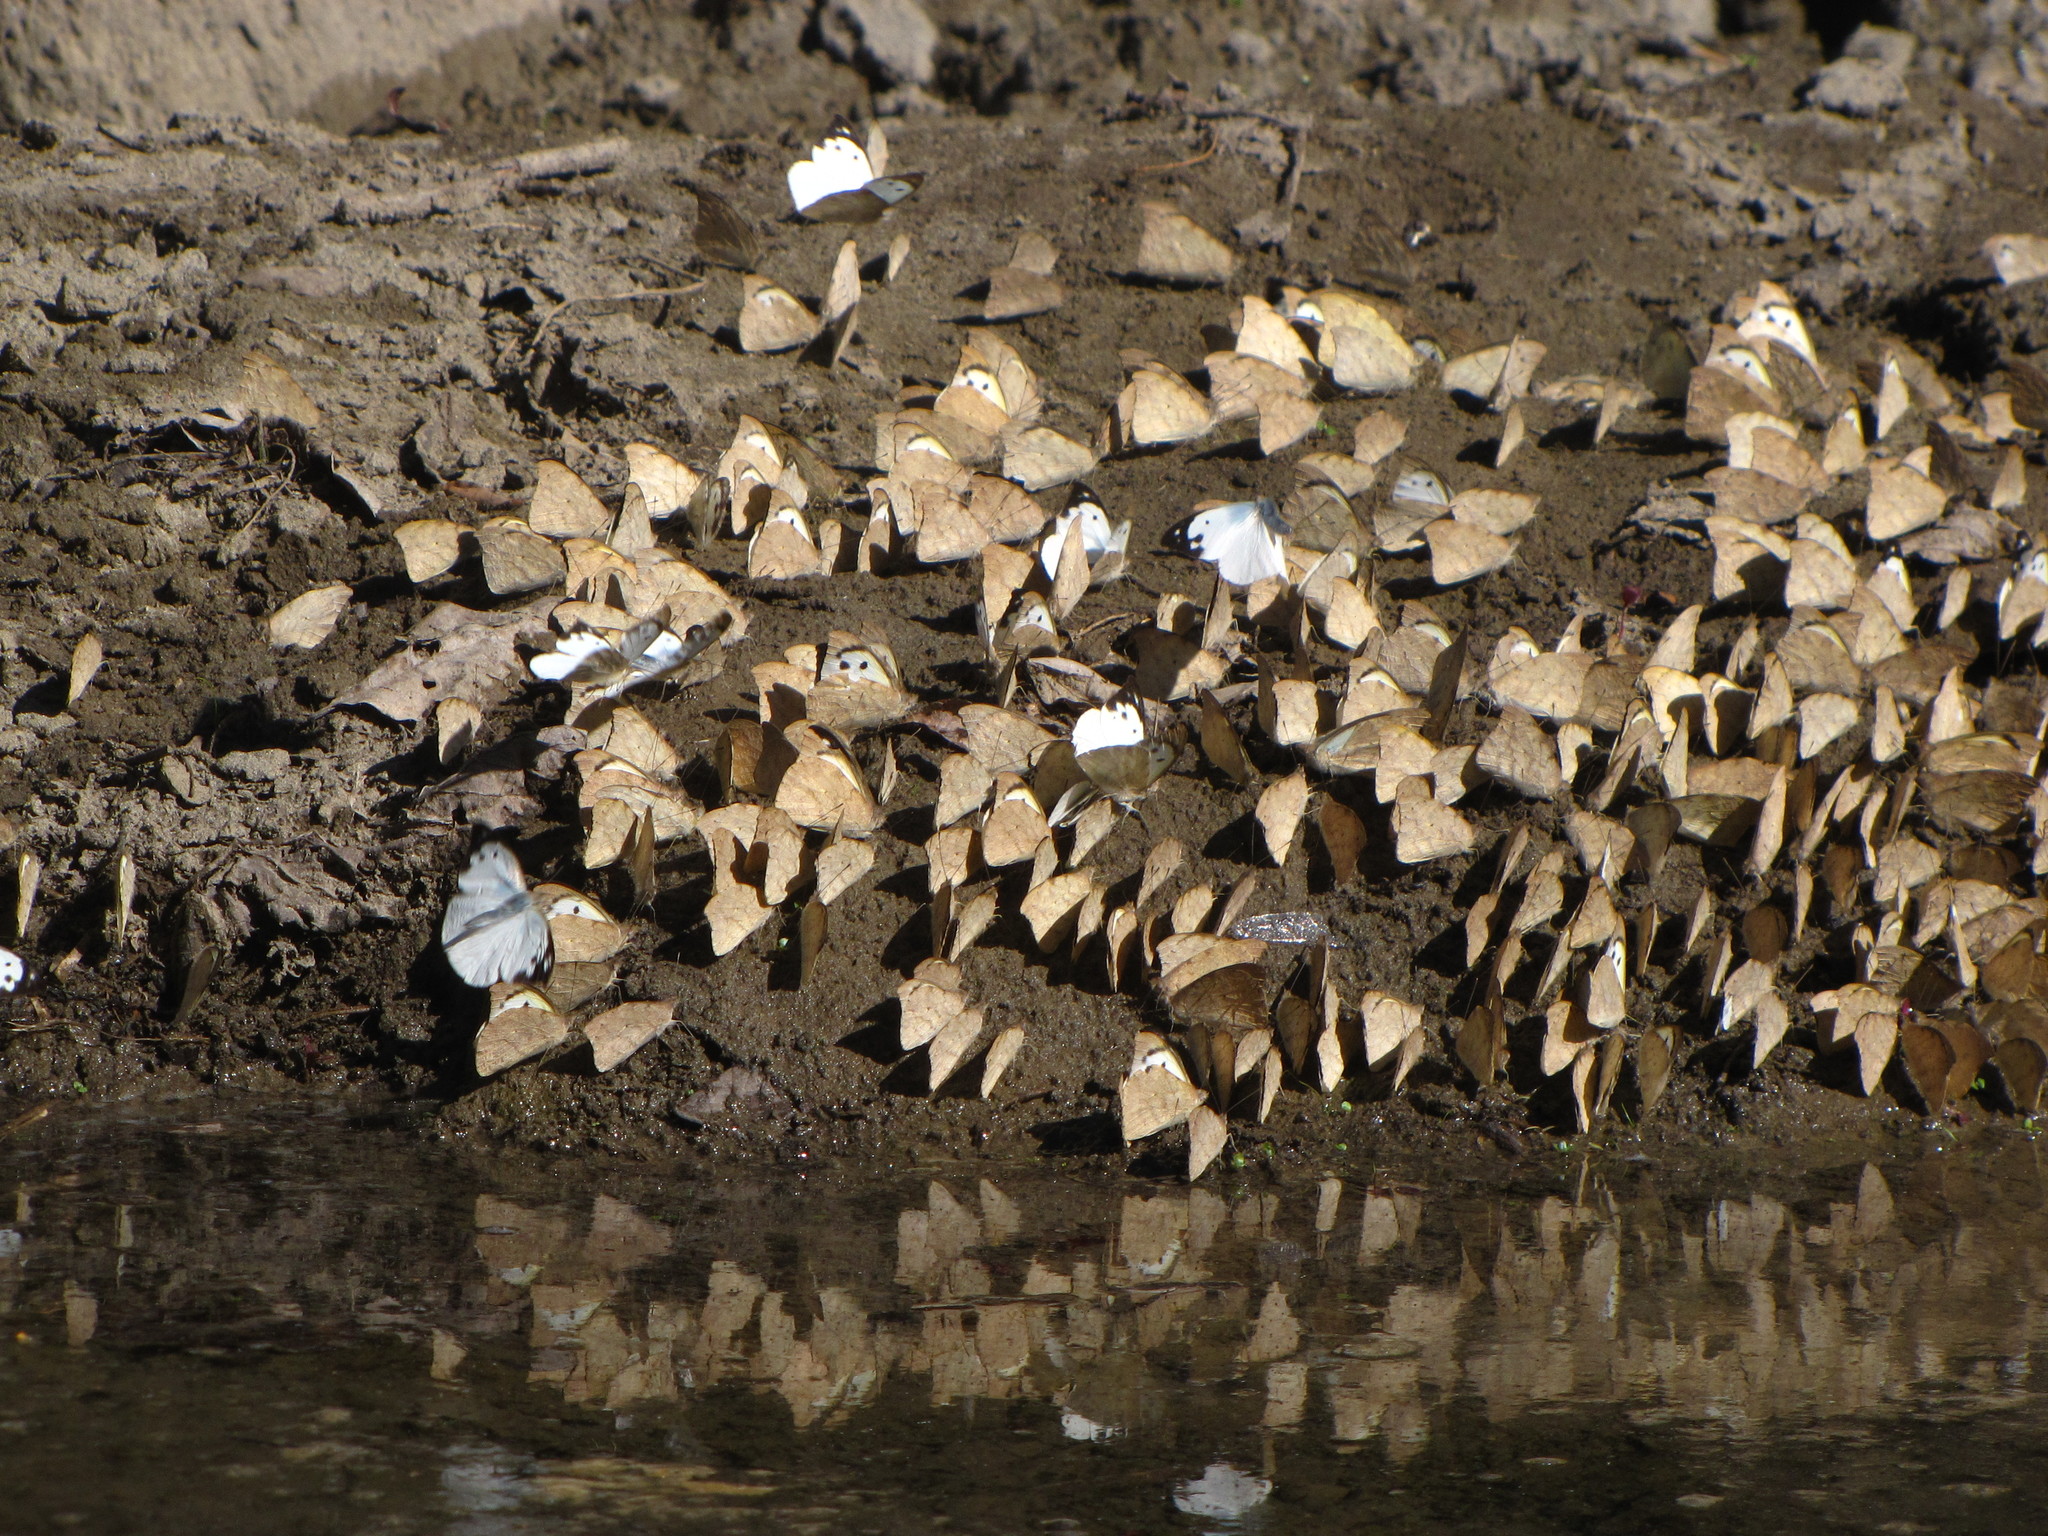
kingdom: Animalia
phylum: Arthropoda
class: Insecta
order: Lepidoptera
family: Pieridae
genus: Appias
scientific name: Appias lalage
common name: Spot puffin
